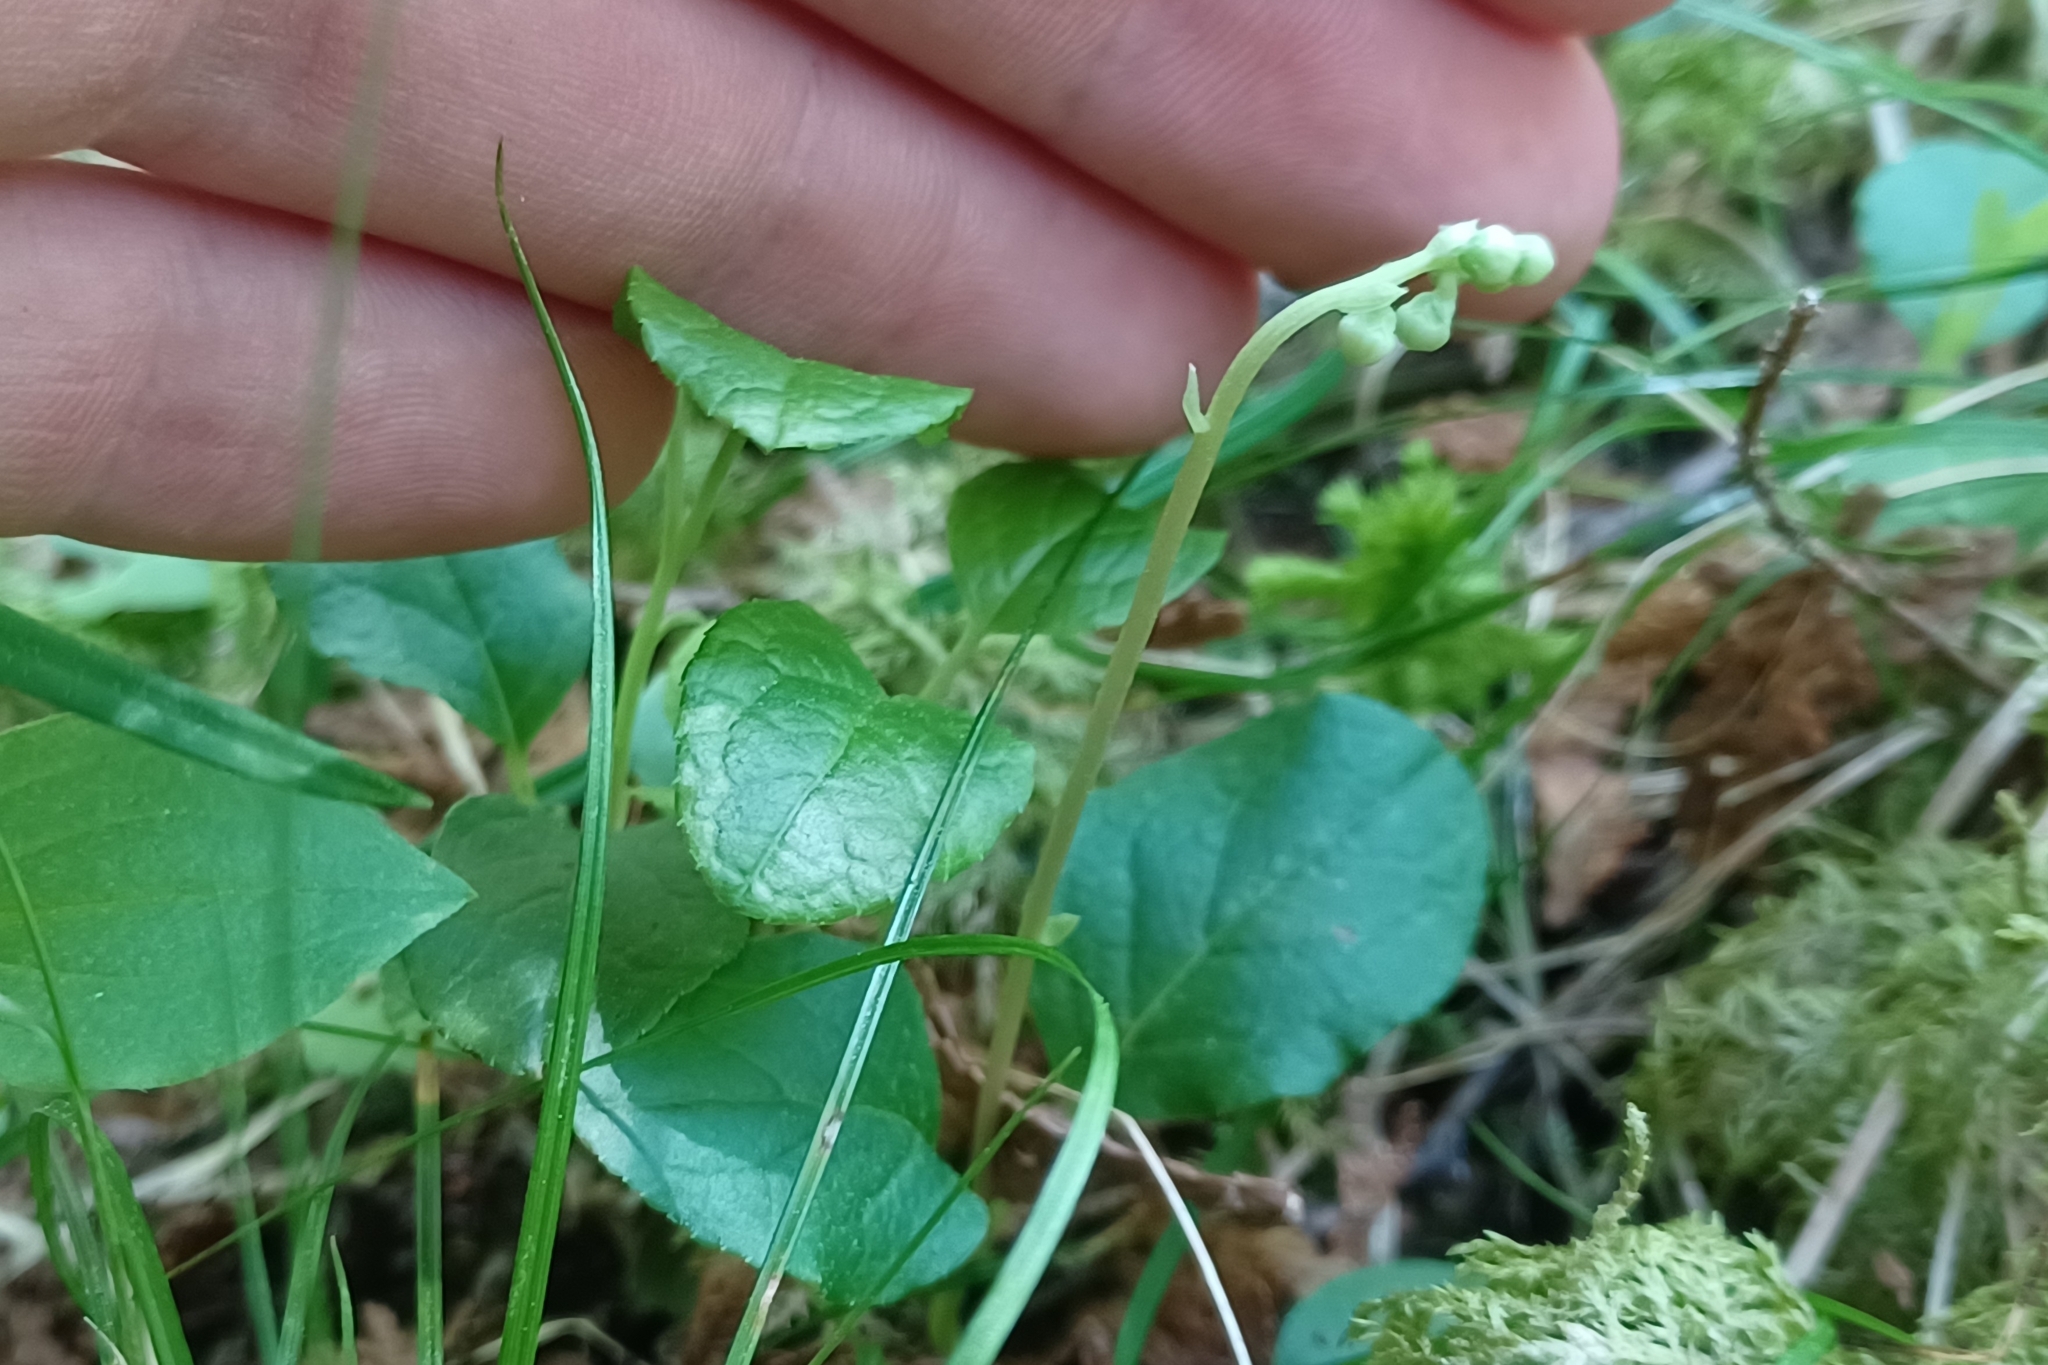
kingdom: Plantae
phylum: Tracheophyta
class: Magnoliopsida
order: Ericales
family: Ericaceae
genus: Orthilia
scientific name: Orthilia secunda
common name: One-sided orthilia
